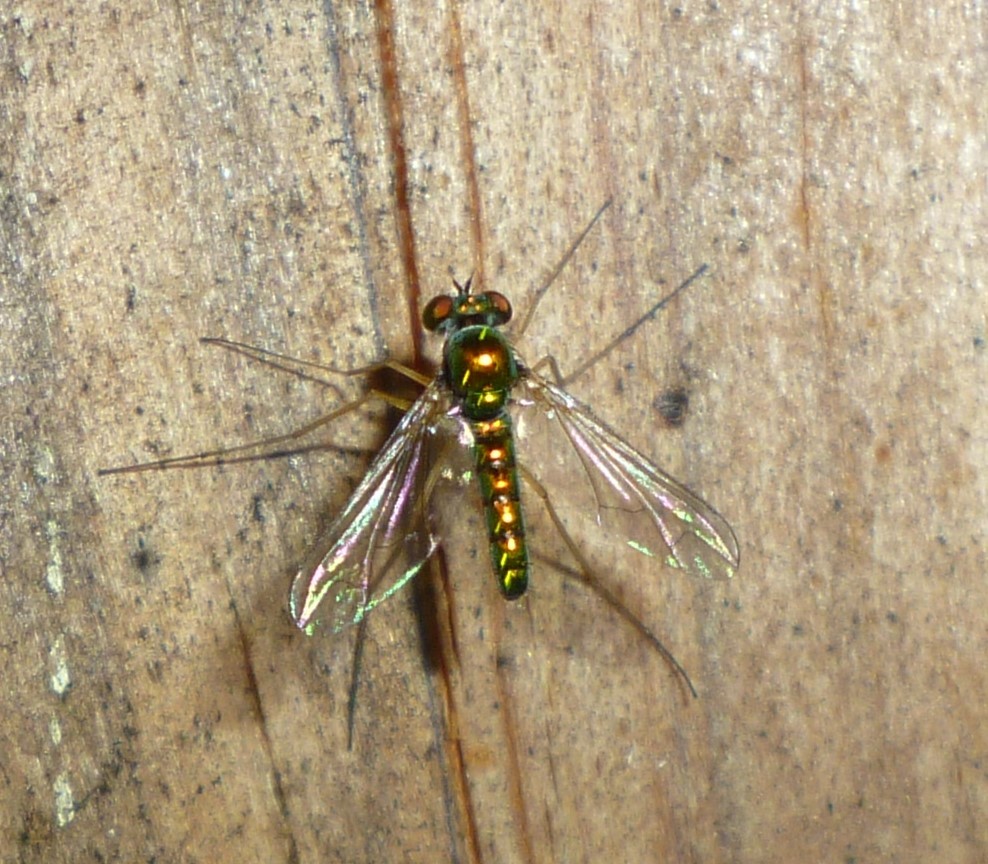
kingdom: Animalia
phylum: Arthropoda
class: Insecta
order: Diptera
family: Dolichopodidae
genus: Amblypsilopus
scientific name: Amblypsilopus scintillans
